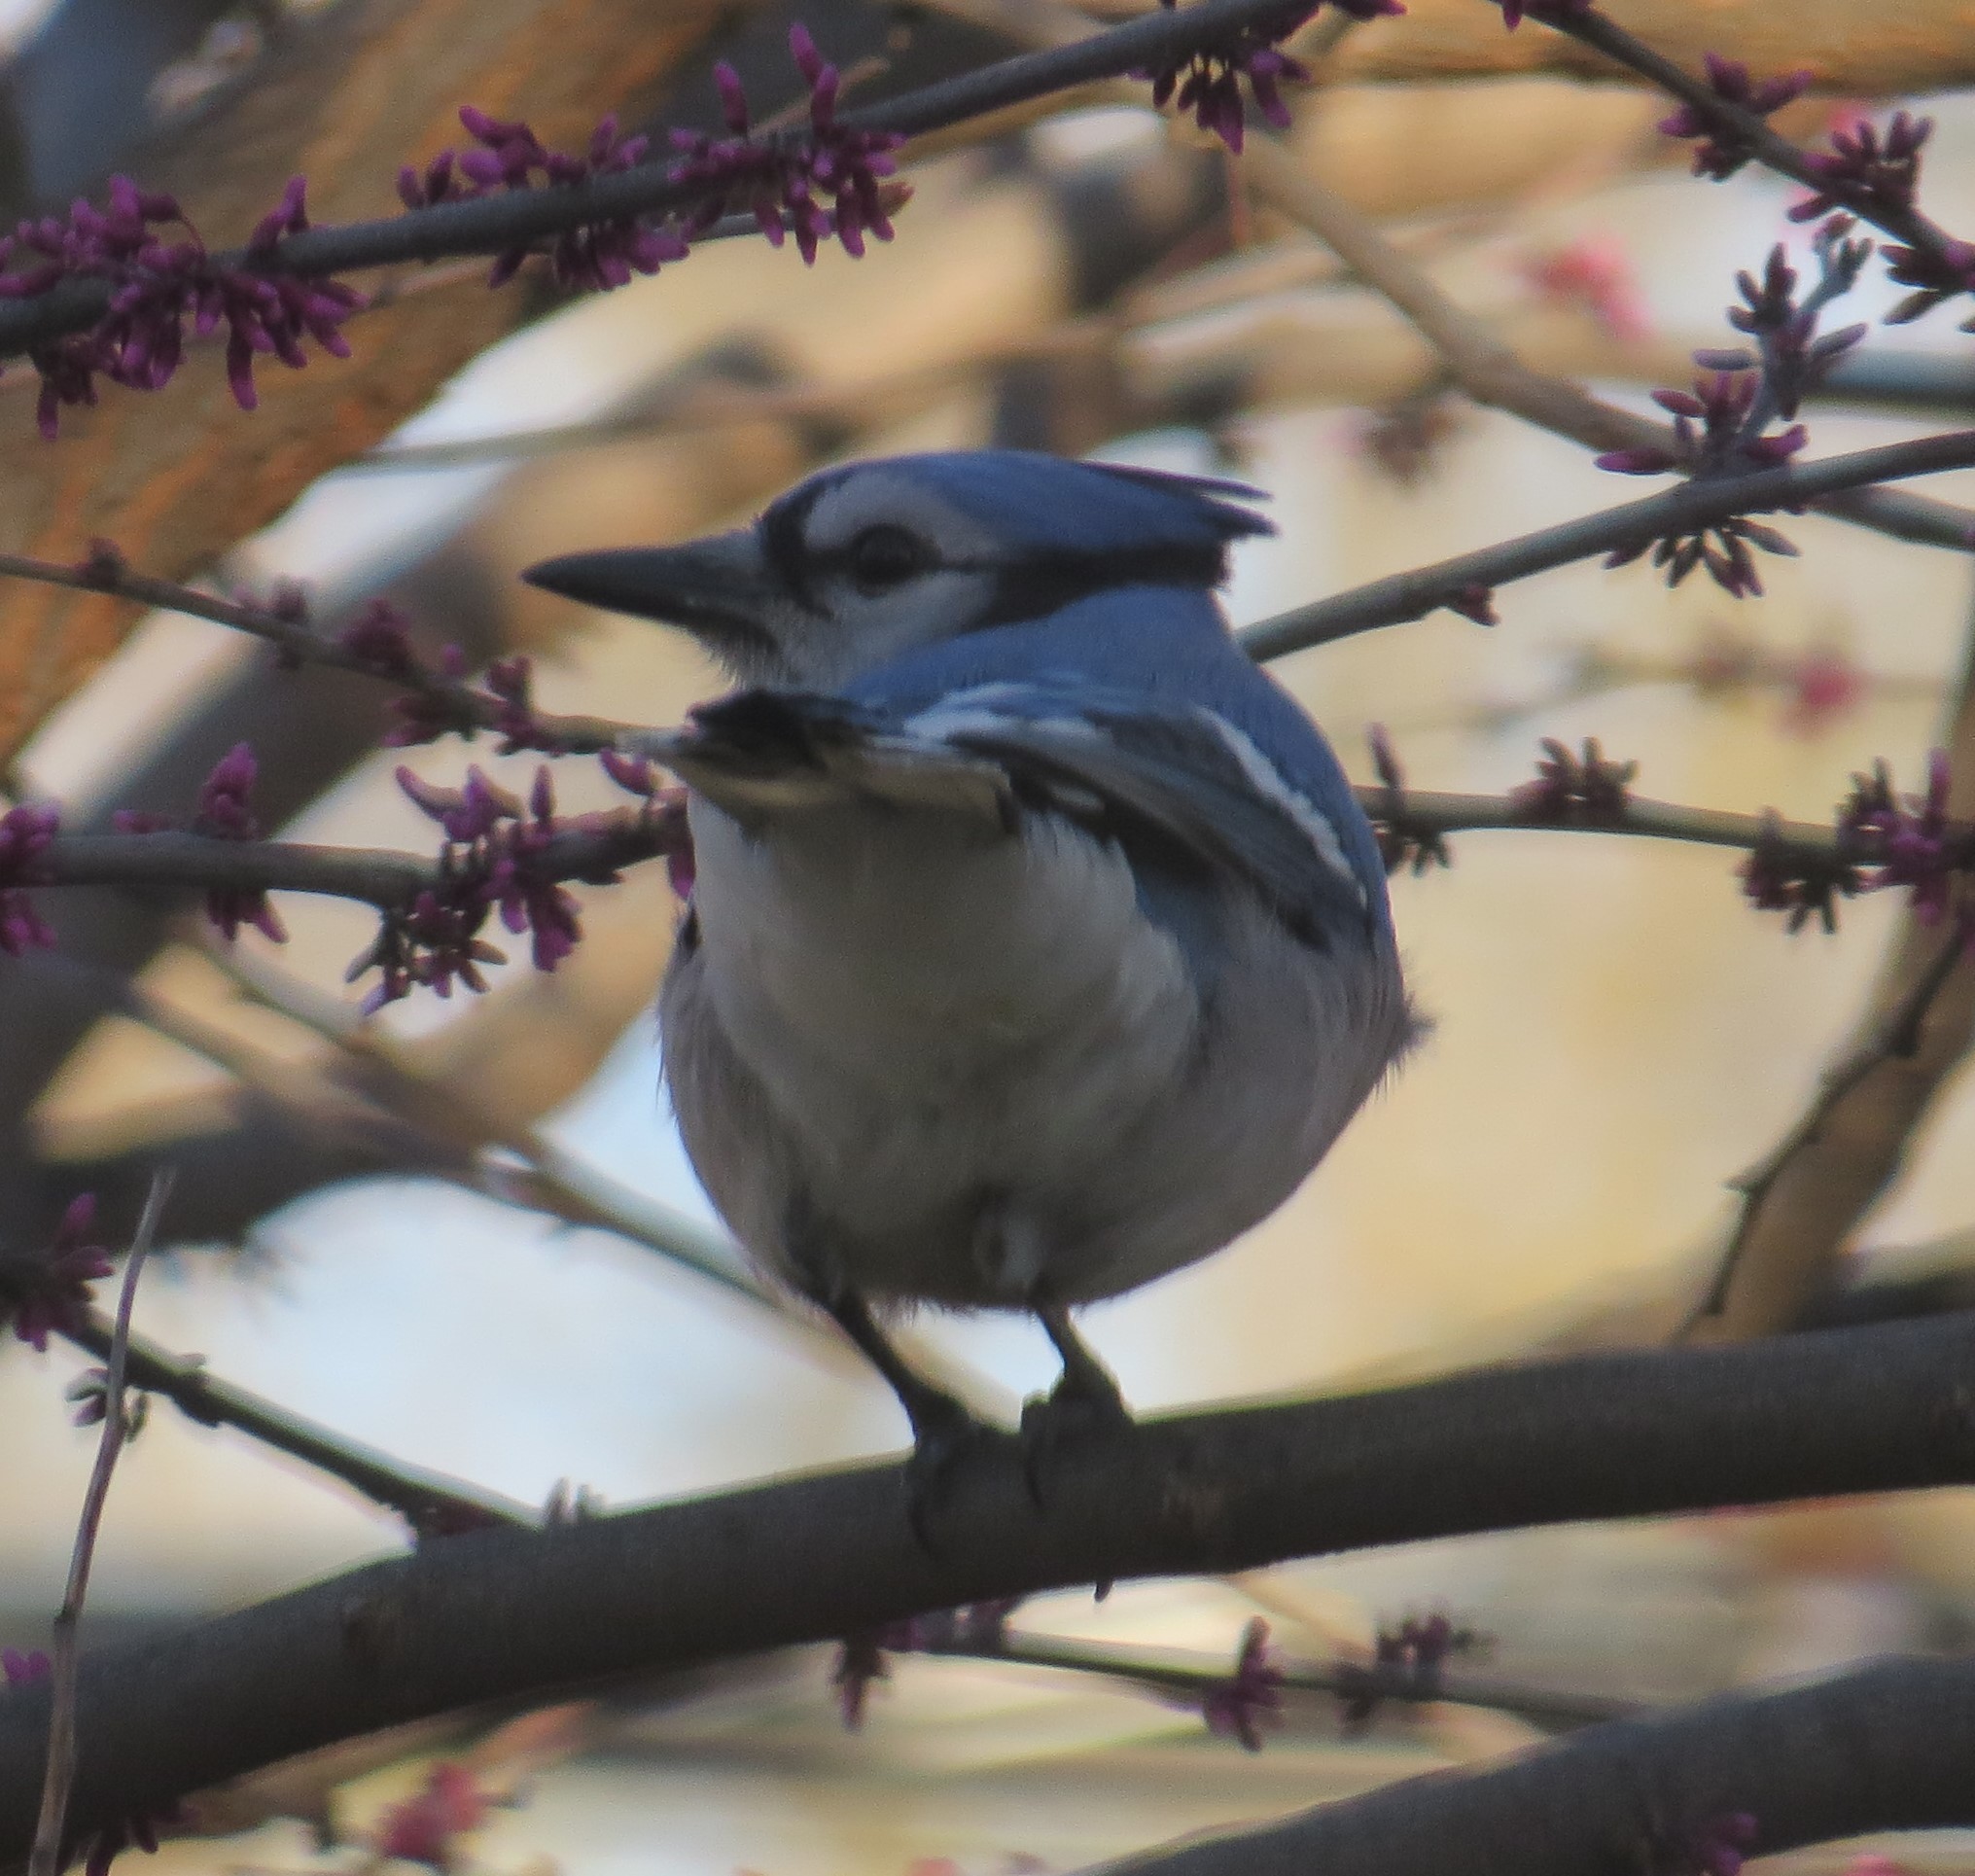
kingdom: Animalia
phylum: Chordata
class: Aves
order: Passeriformes
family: Corvidae
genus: Cyanocitta
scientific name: Cyanocitta cristata
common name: Blue jay
